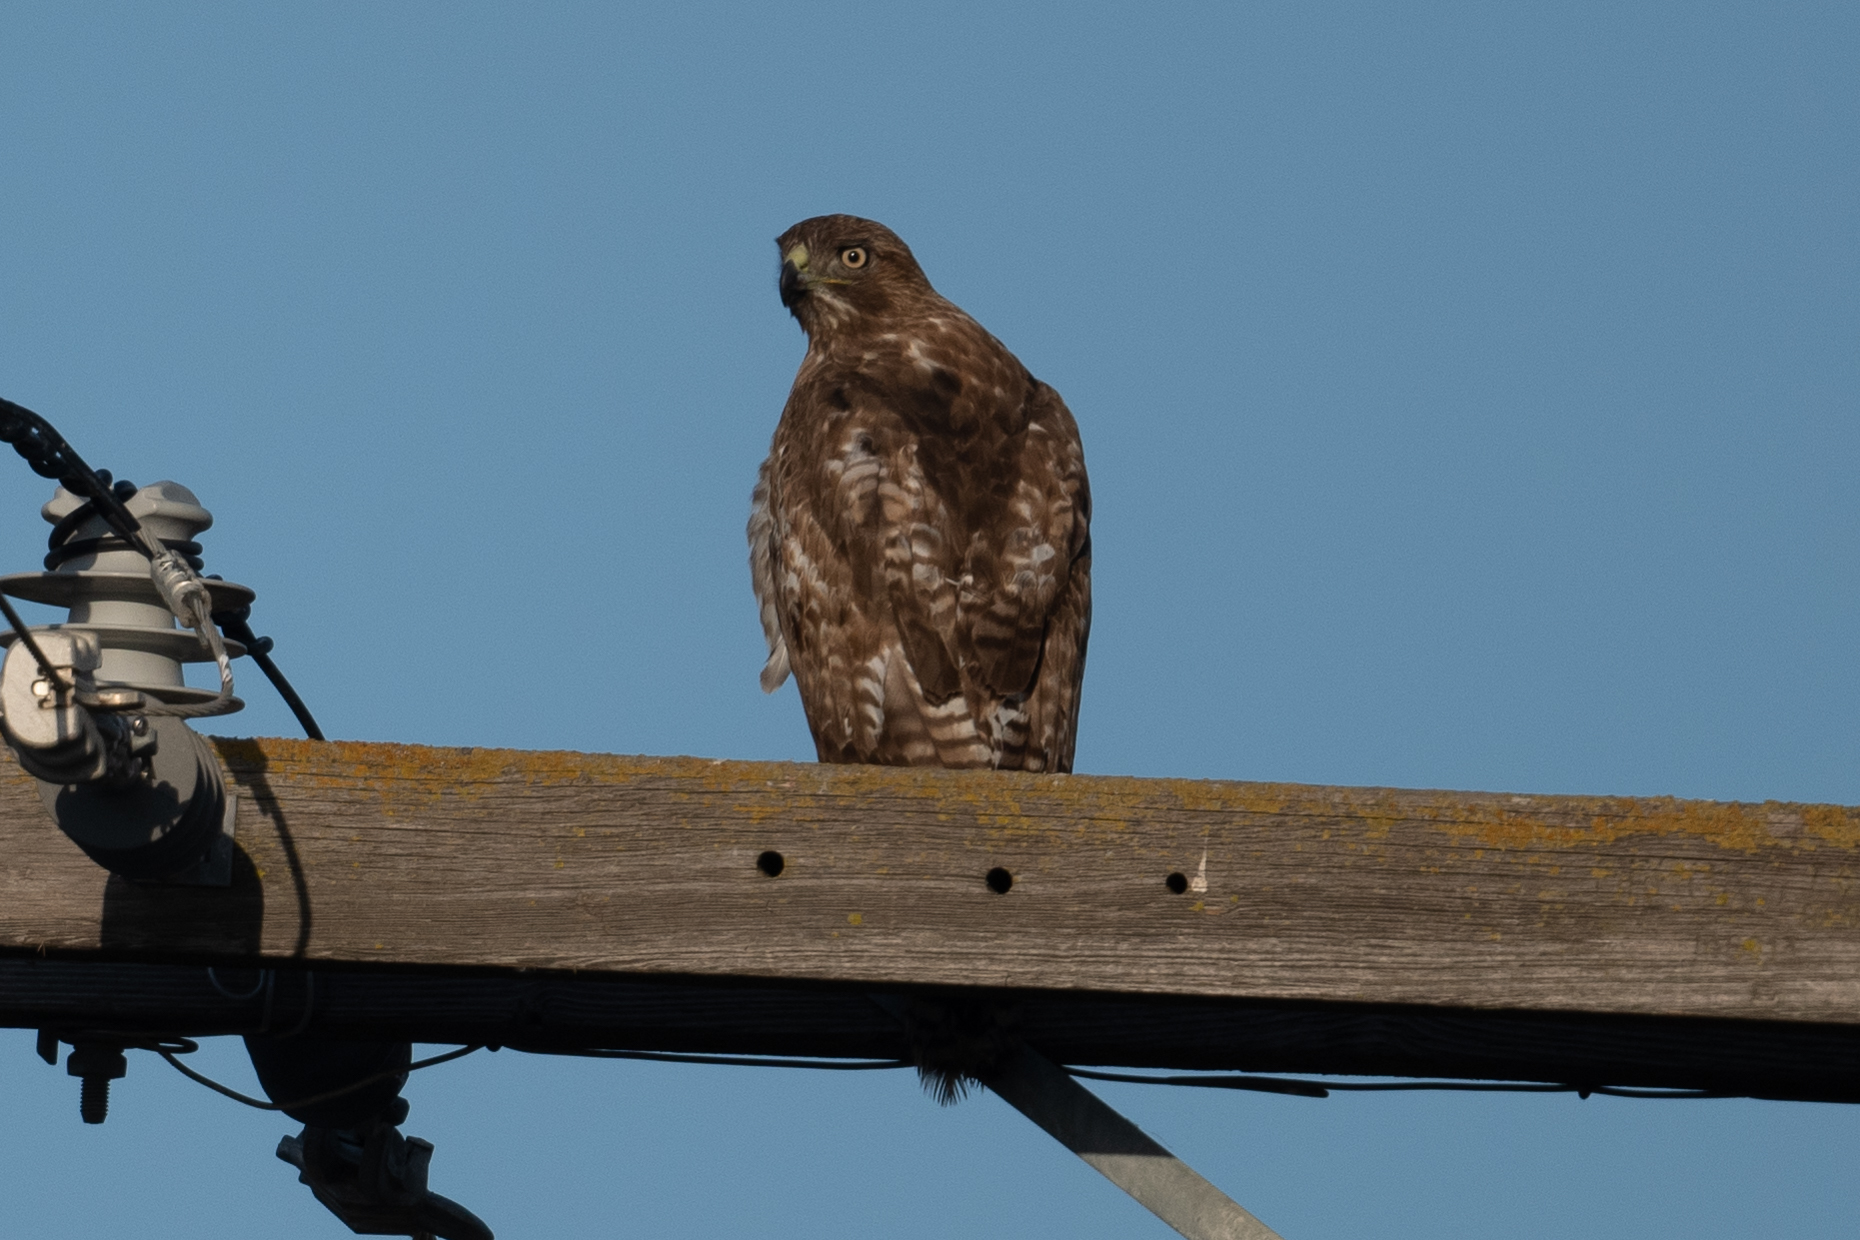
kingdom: Animalia
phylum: Chordata
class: Aves
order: Accipitriformes
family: Accipitridae
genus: Buteo
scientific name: Buteo jamaicensis
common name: Red-tailed hawk
